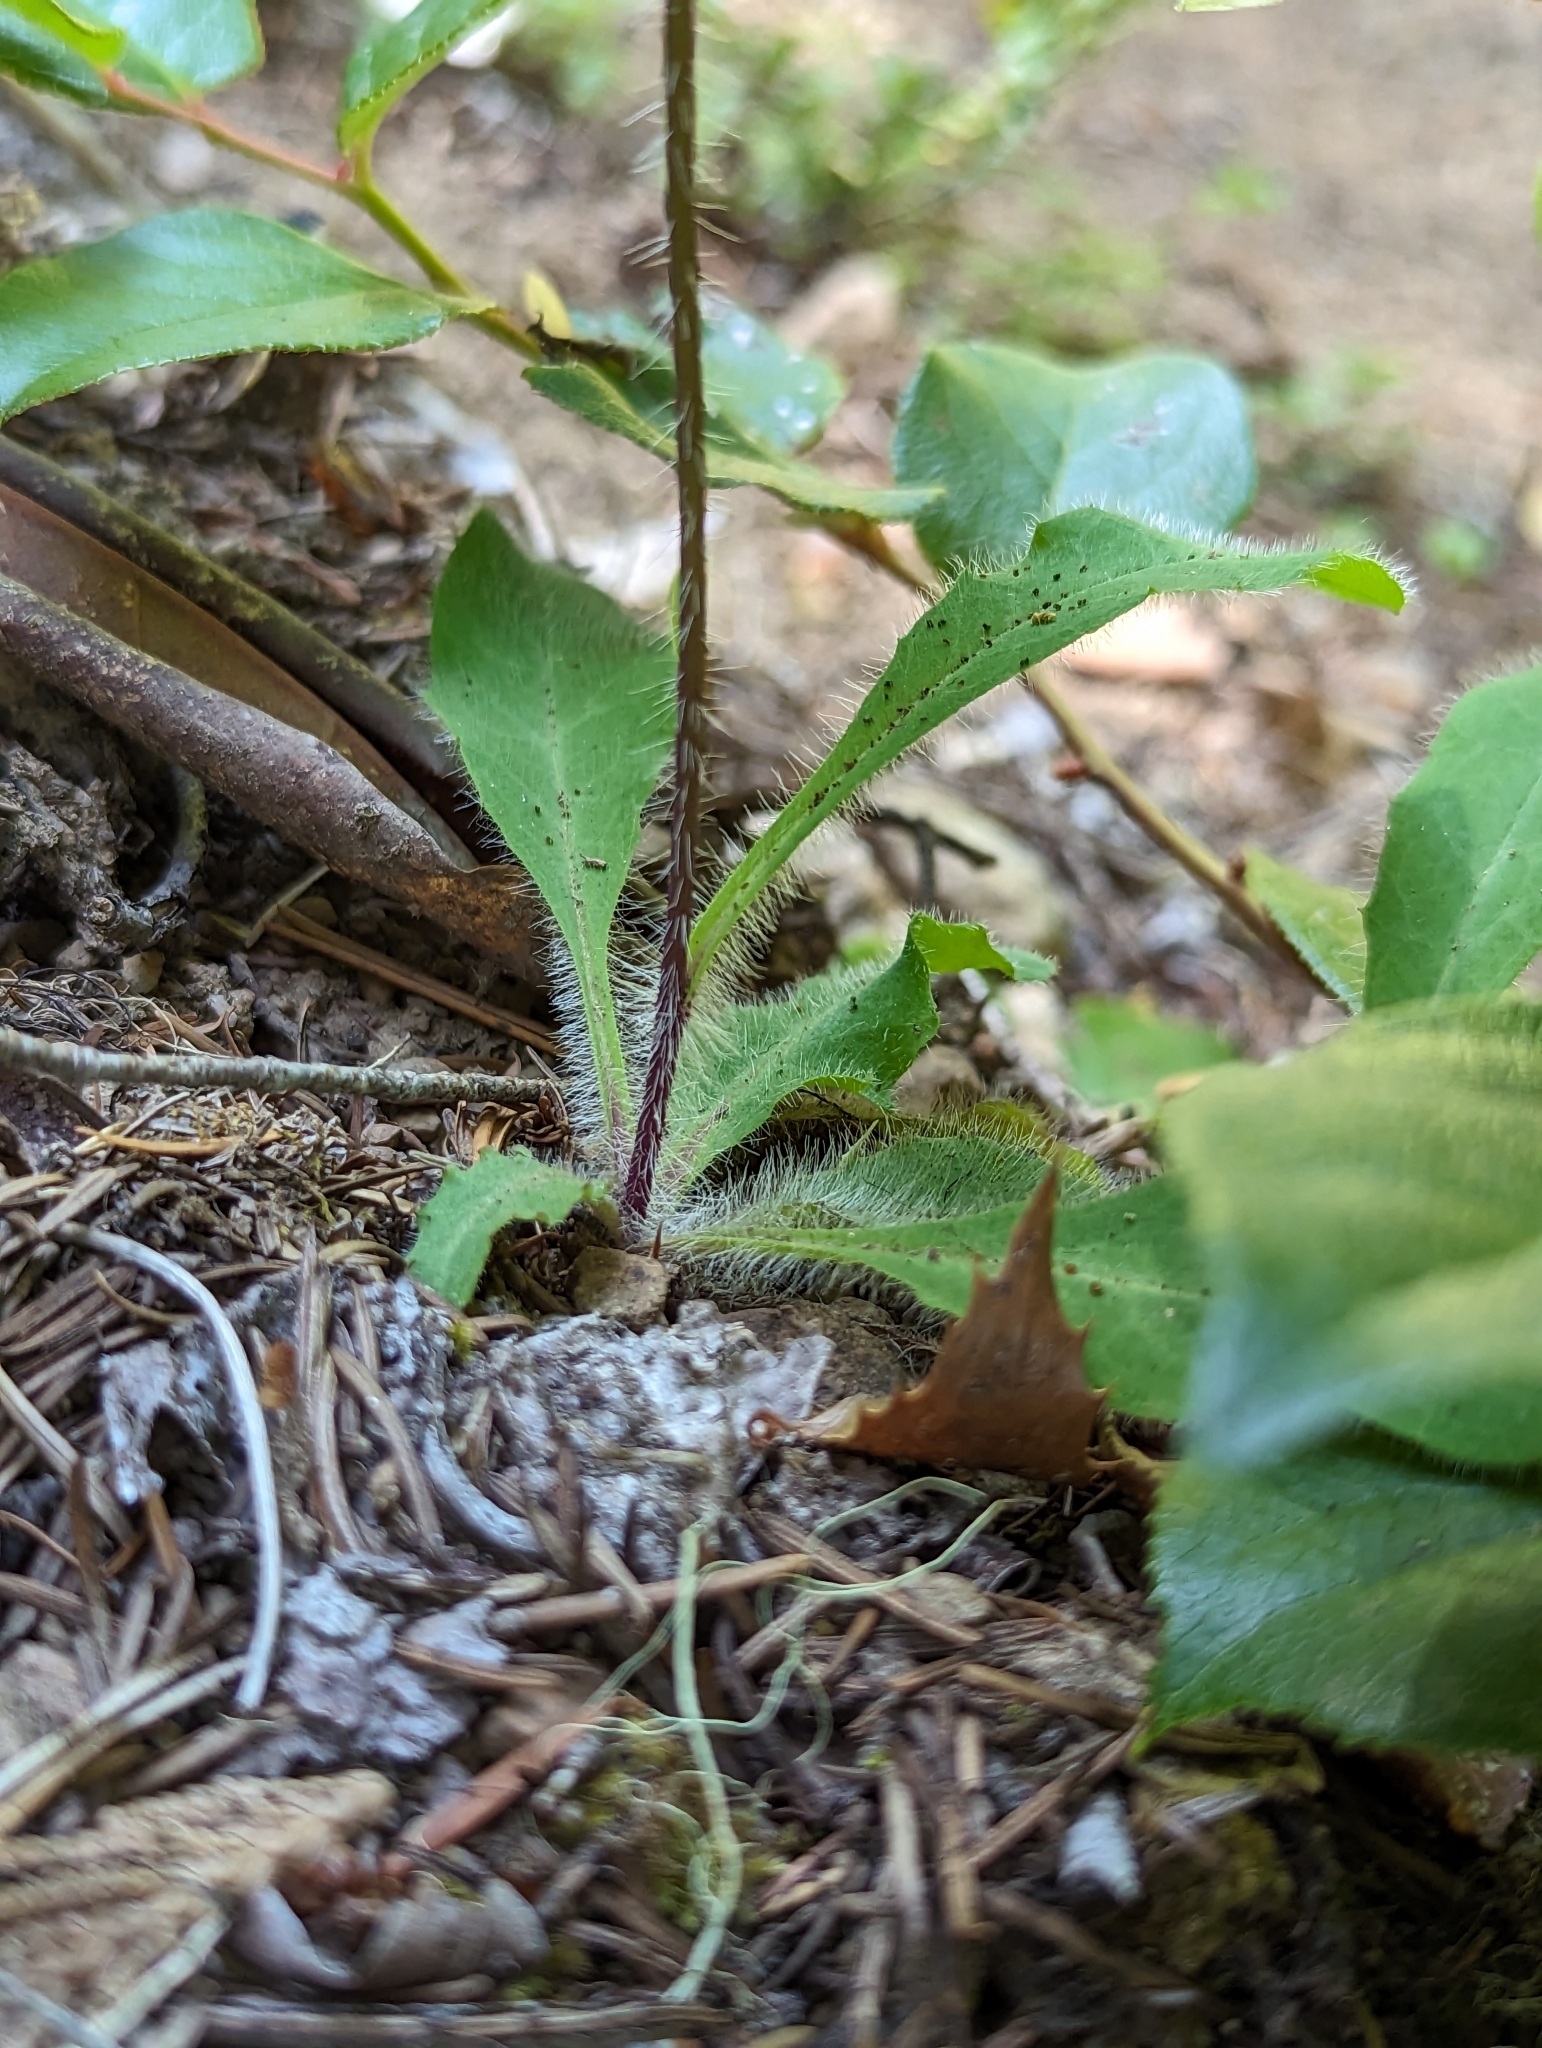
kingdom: Plantae
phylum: Tracheophyta
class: Magnoliopsida
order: Asterales
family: Asteraceae
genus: Hieracium
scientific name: Hieracium albiflorum
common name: White hawkweed
